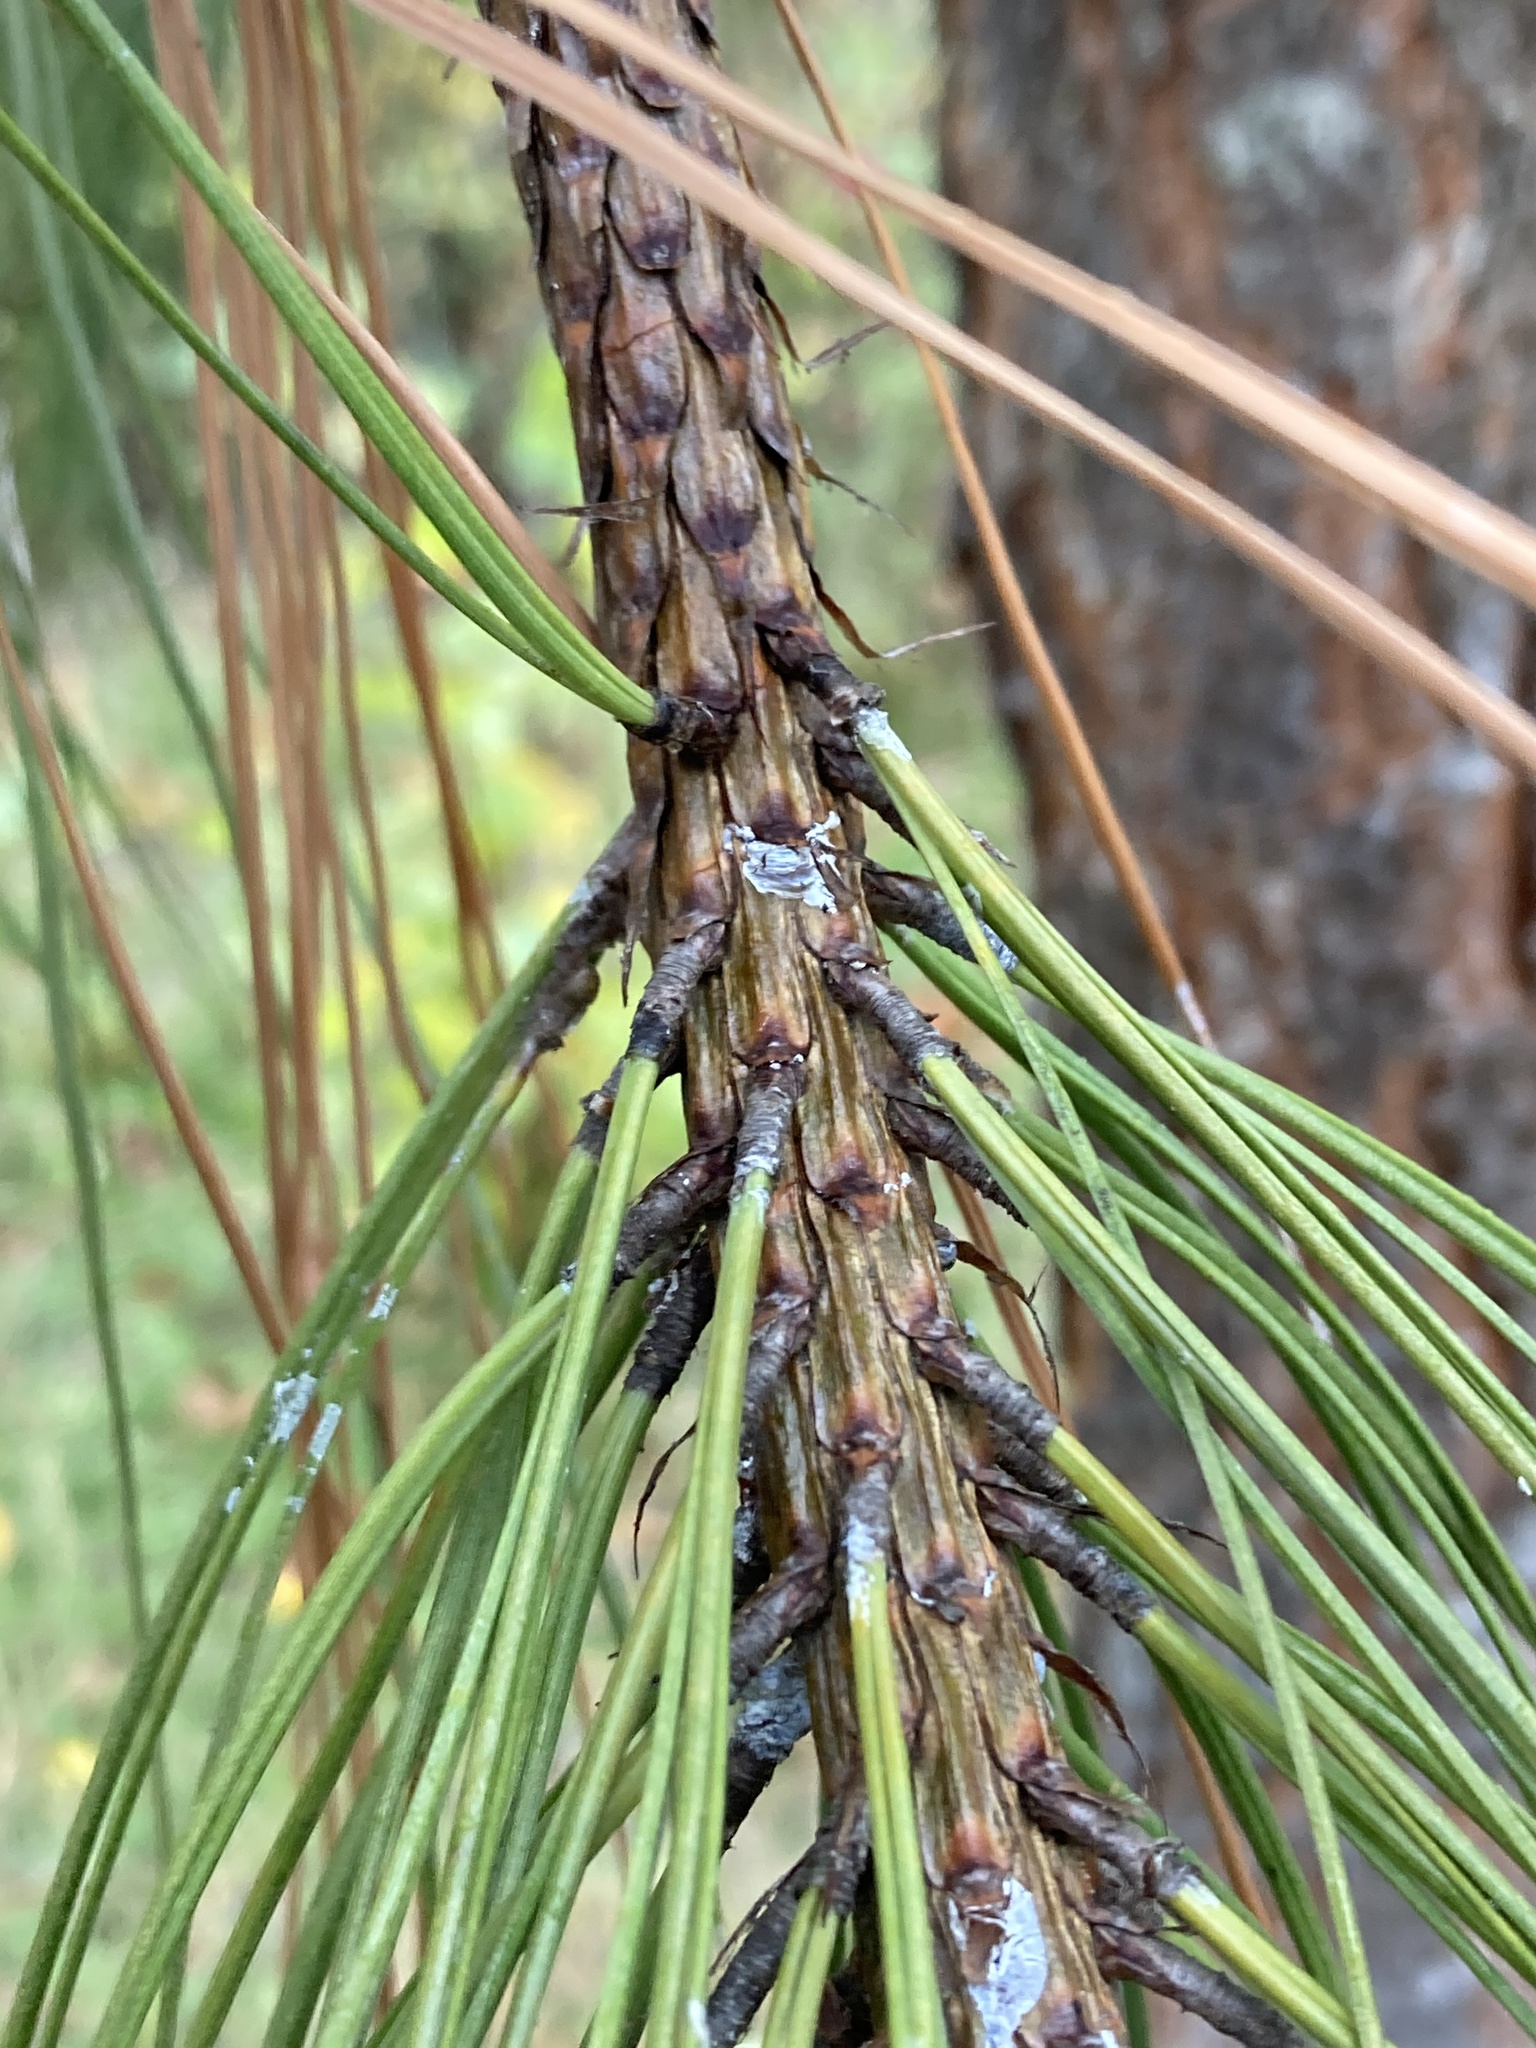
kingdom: Plantae
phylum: Tracheophyta
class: Pinopsida
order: Pinales
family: Pinaceae
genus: Pinus
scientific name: Pinus ponderosa
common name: Western yellow-pine
